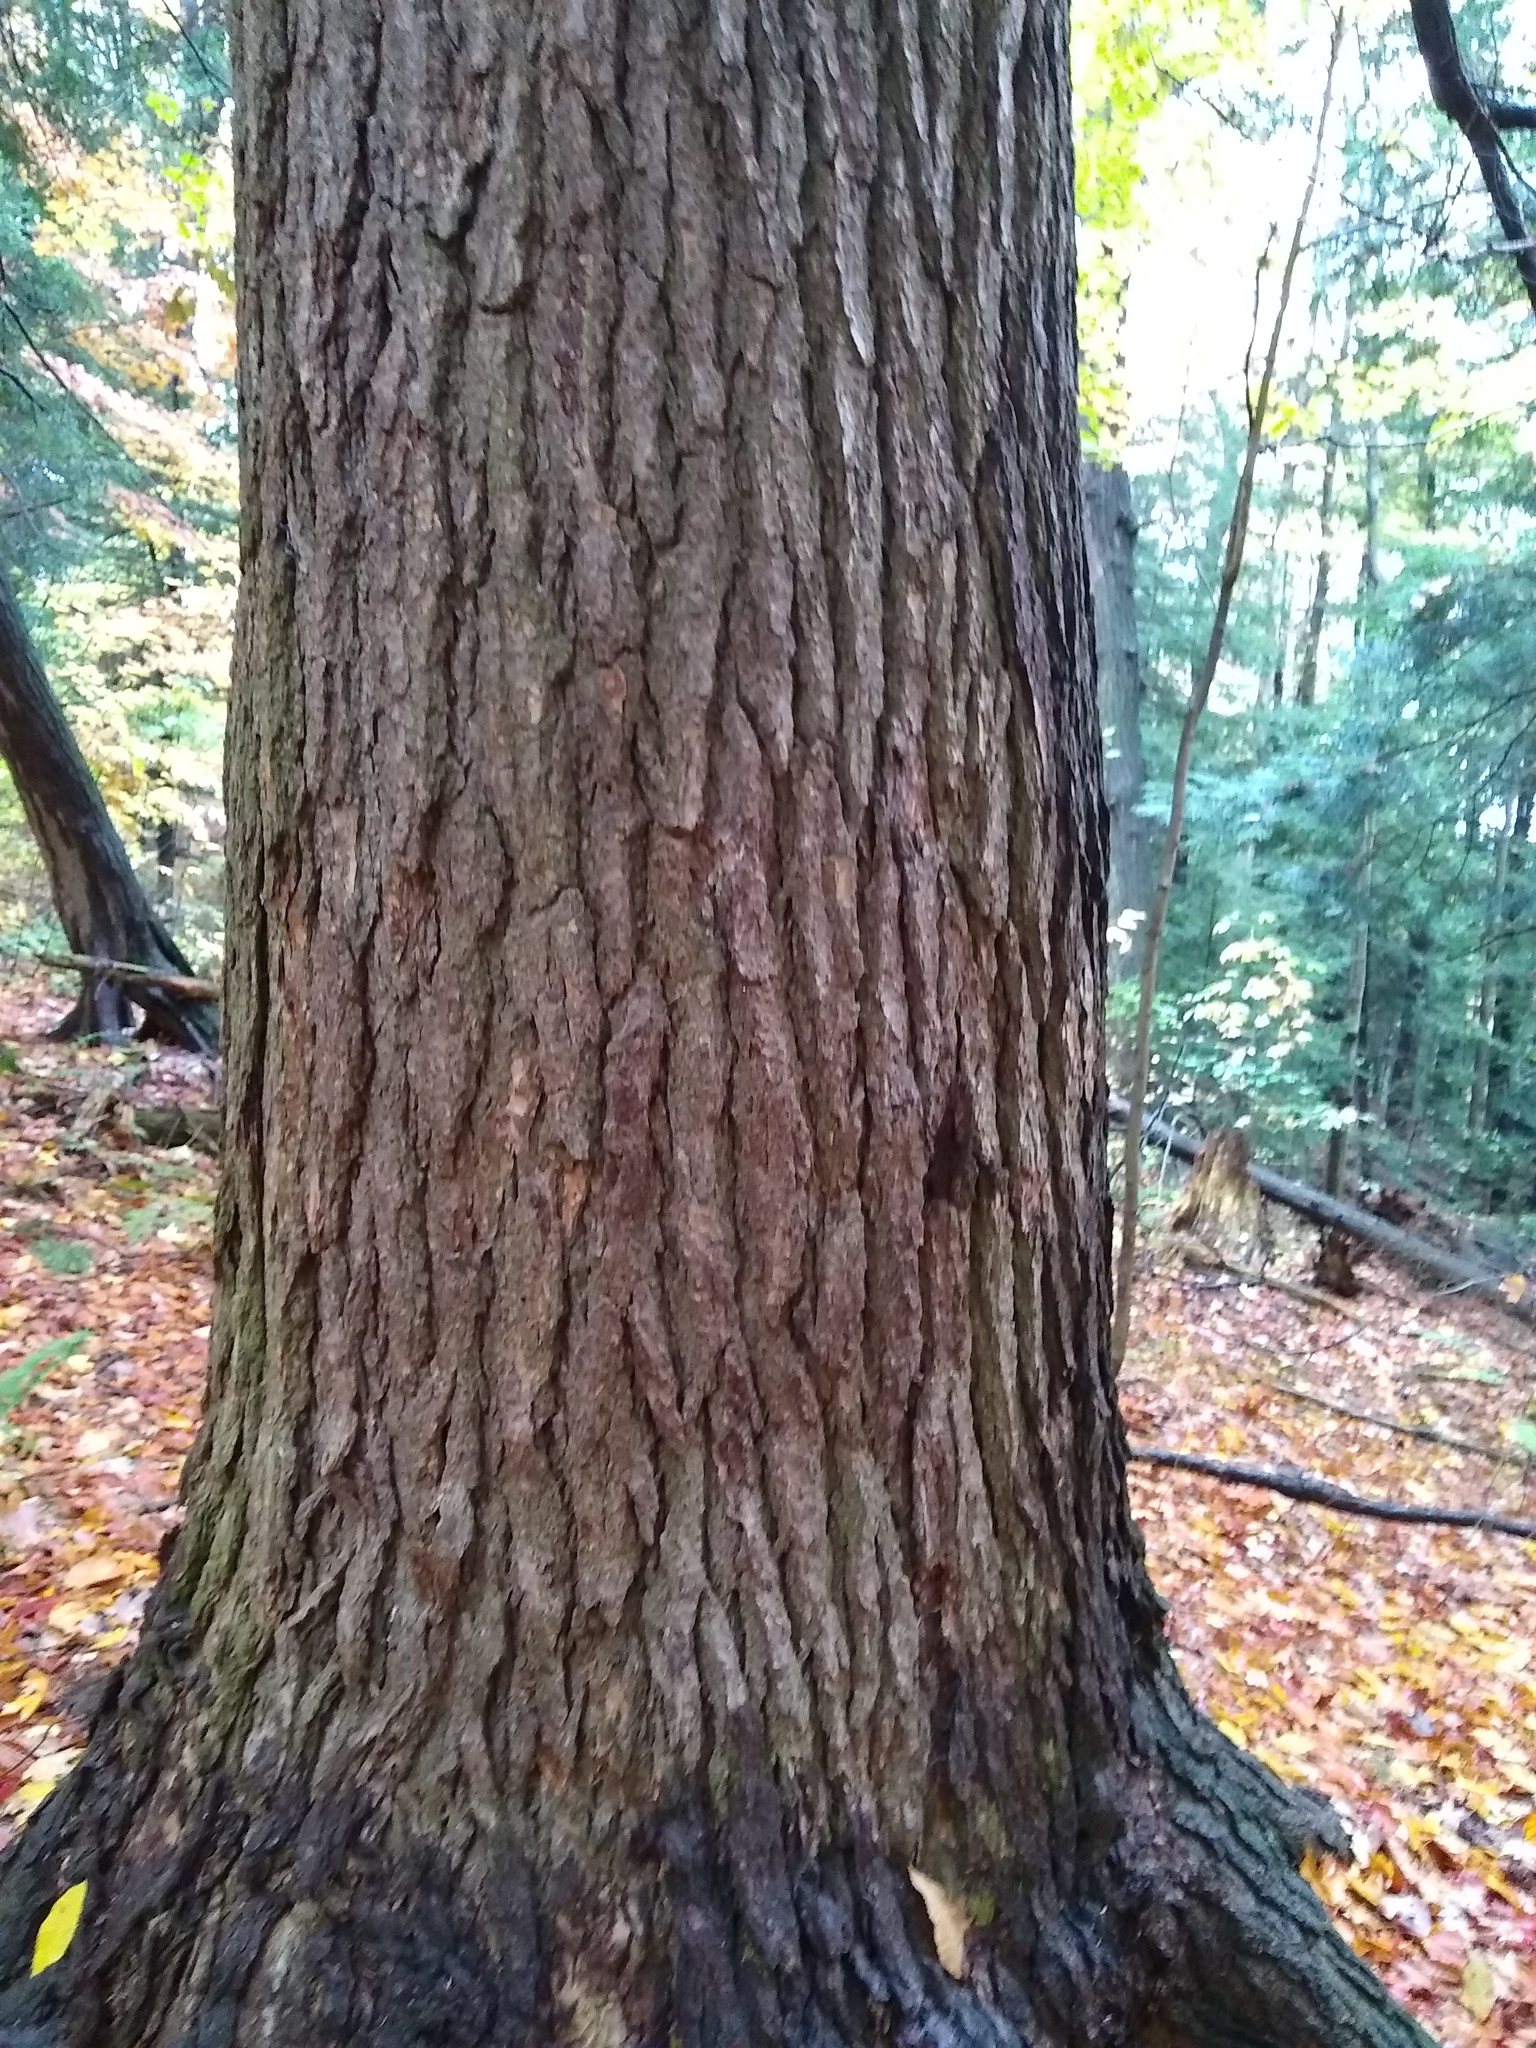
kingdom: Plantae
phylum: Tracheophyta
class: Pinopsida
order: Pinales
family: Pinaceae
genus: Tsuga
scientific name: Tsuga canadensis
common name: Eastern hemlock
